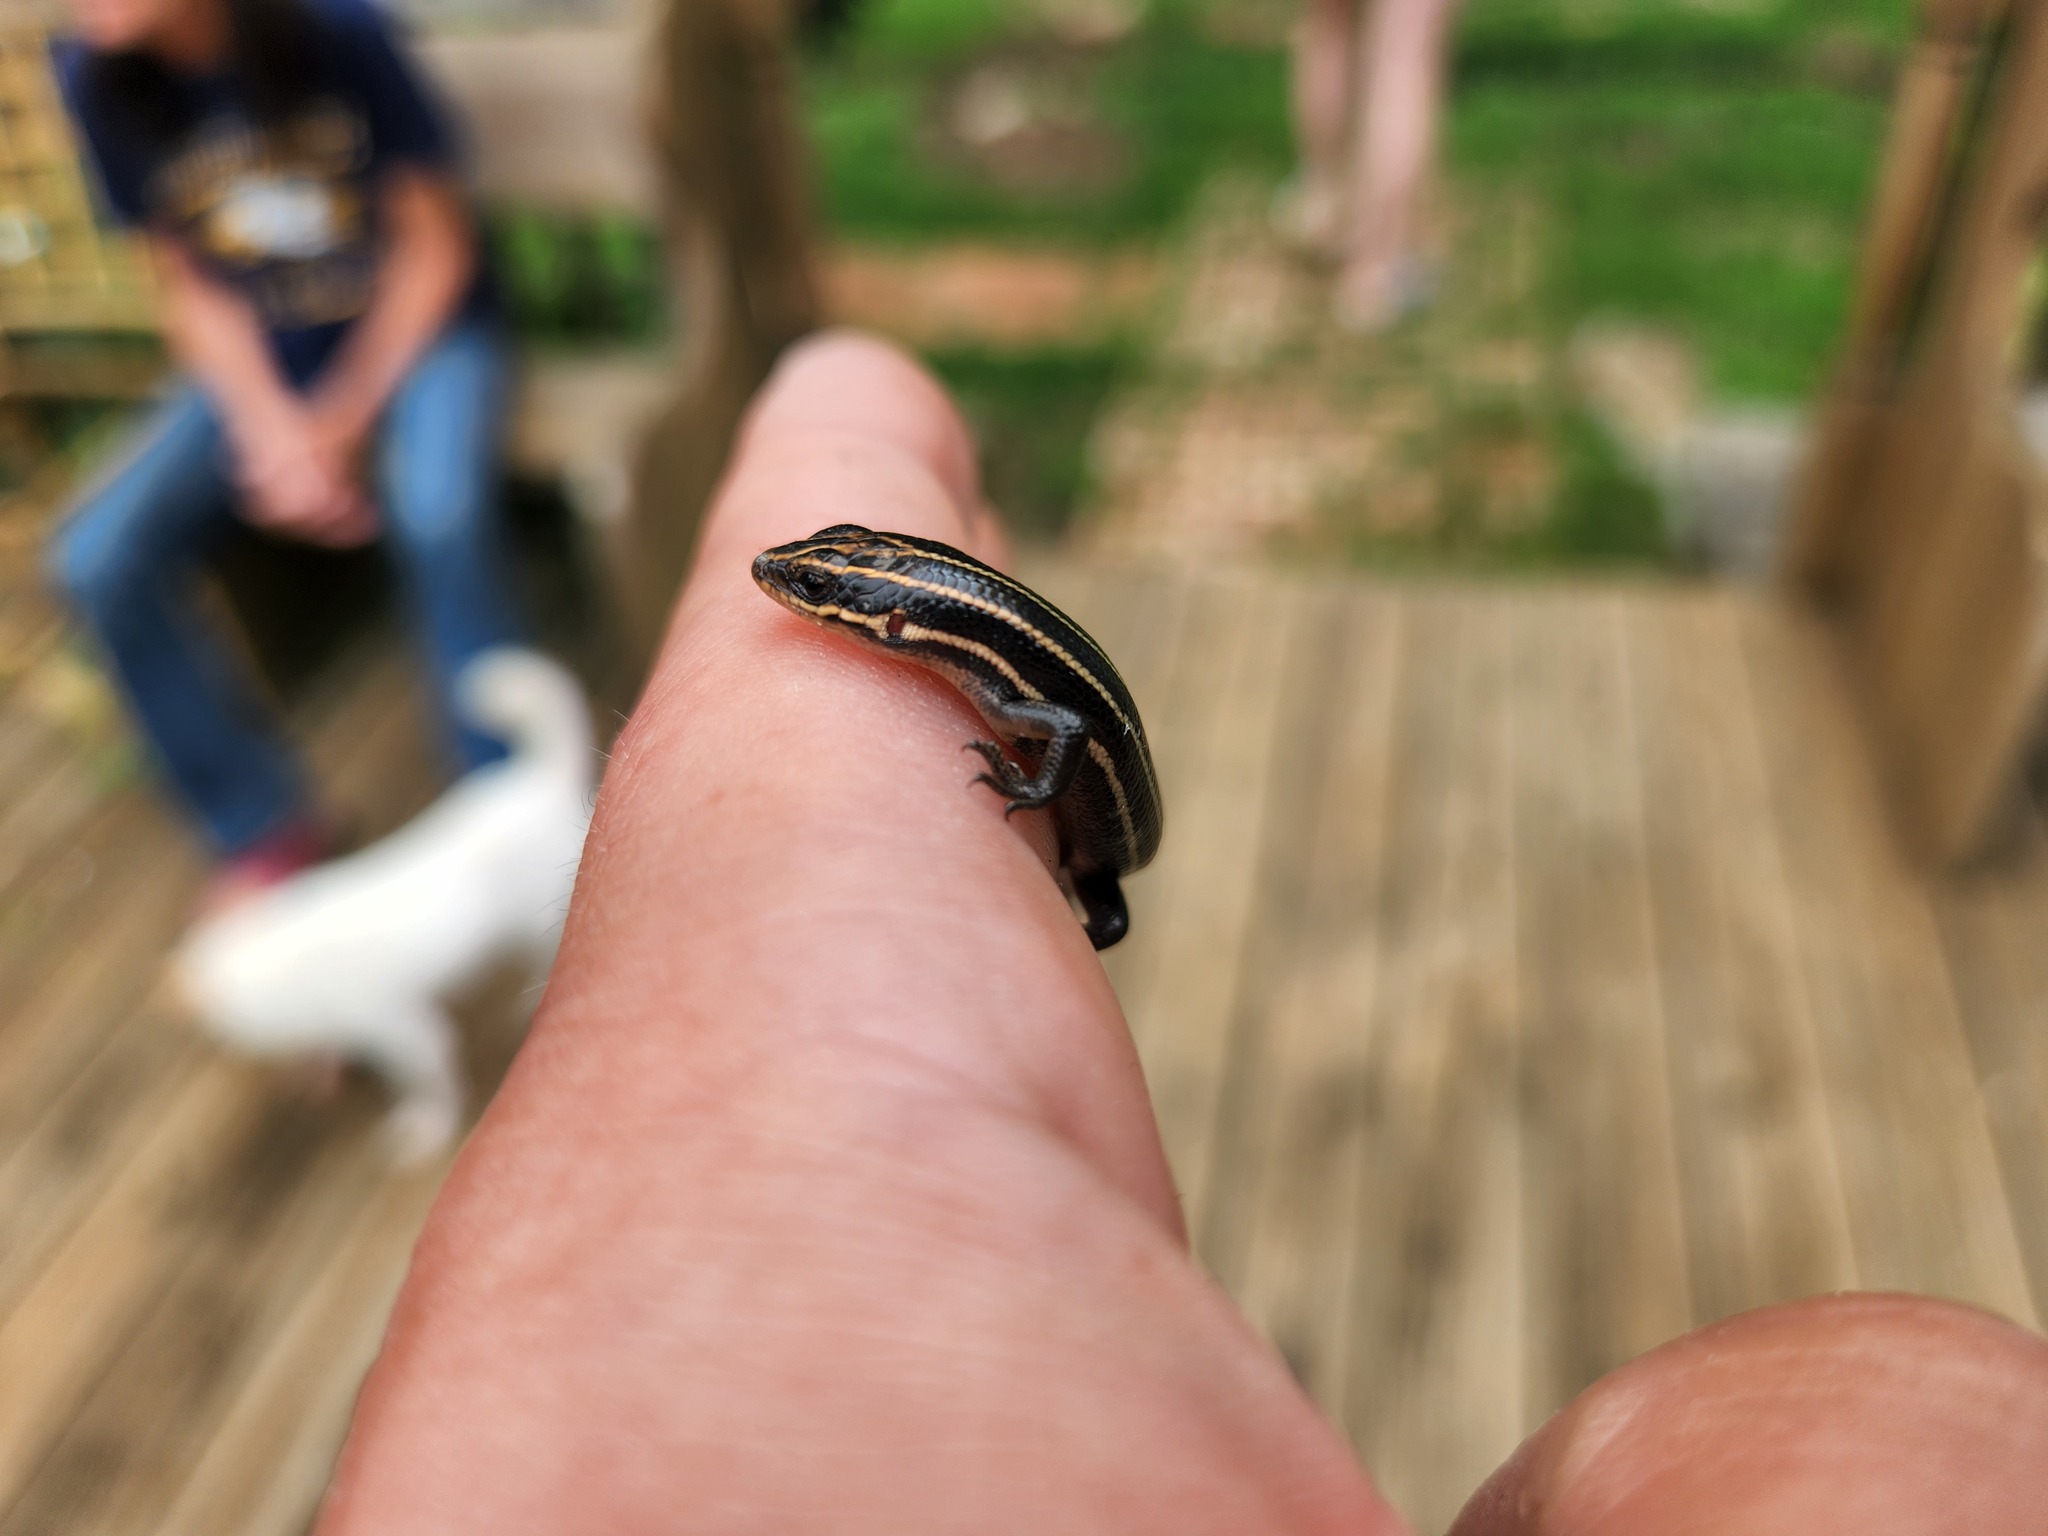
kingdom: Animalia
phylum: Chordata
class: Squamata
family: Scincidae
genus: Plestiodon
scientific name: Plestiodon fasciatus
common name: Five-lined skink
